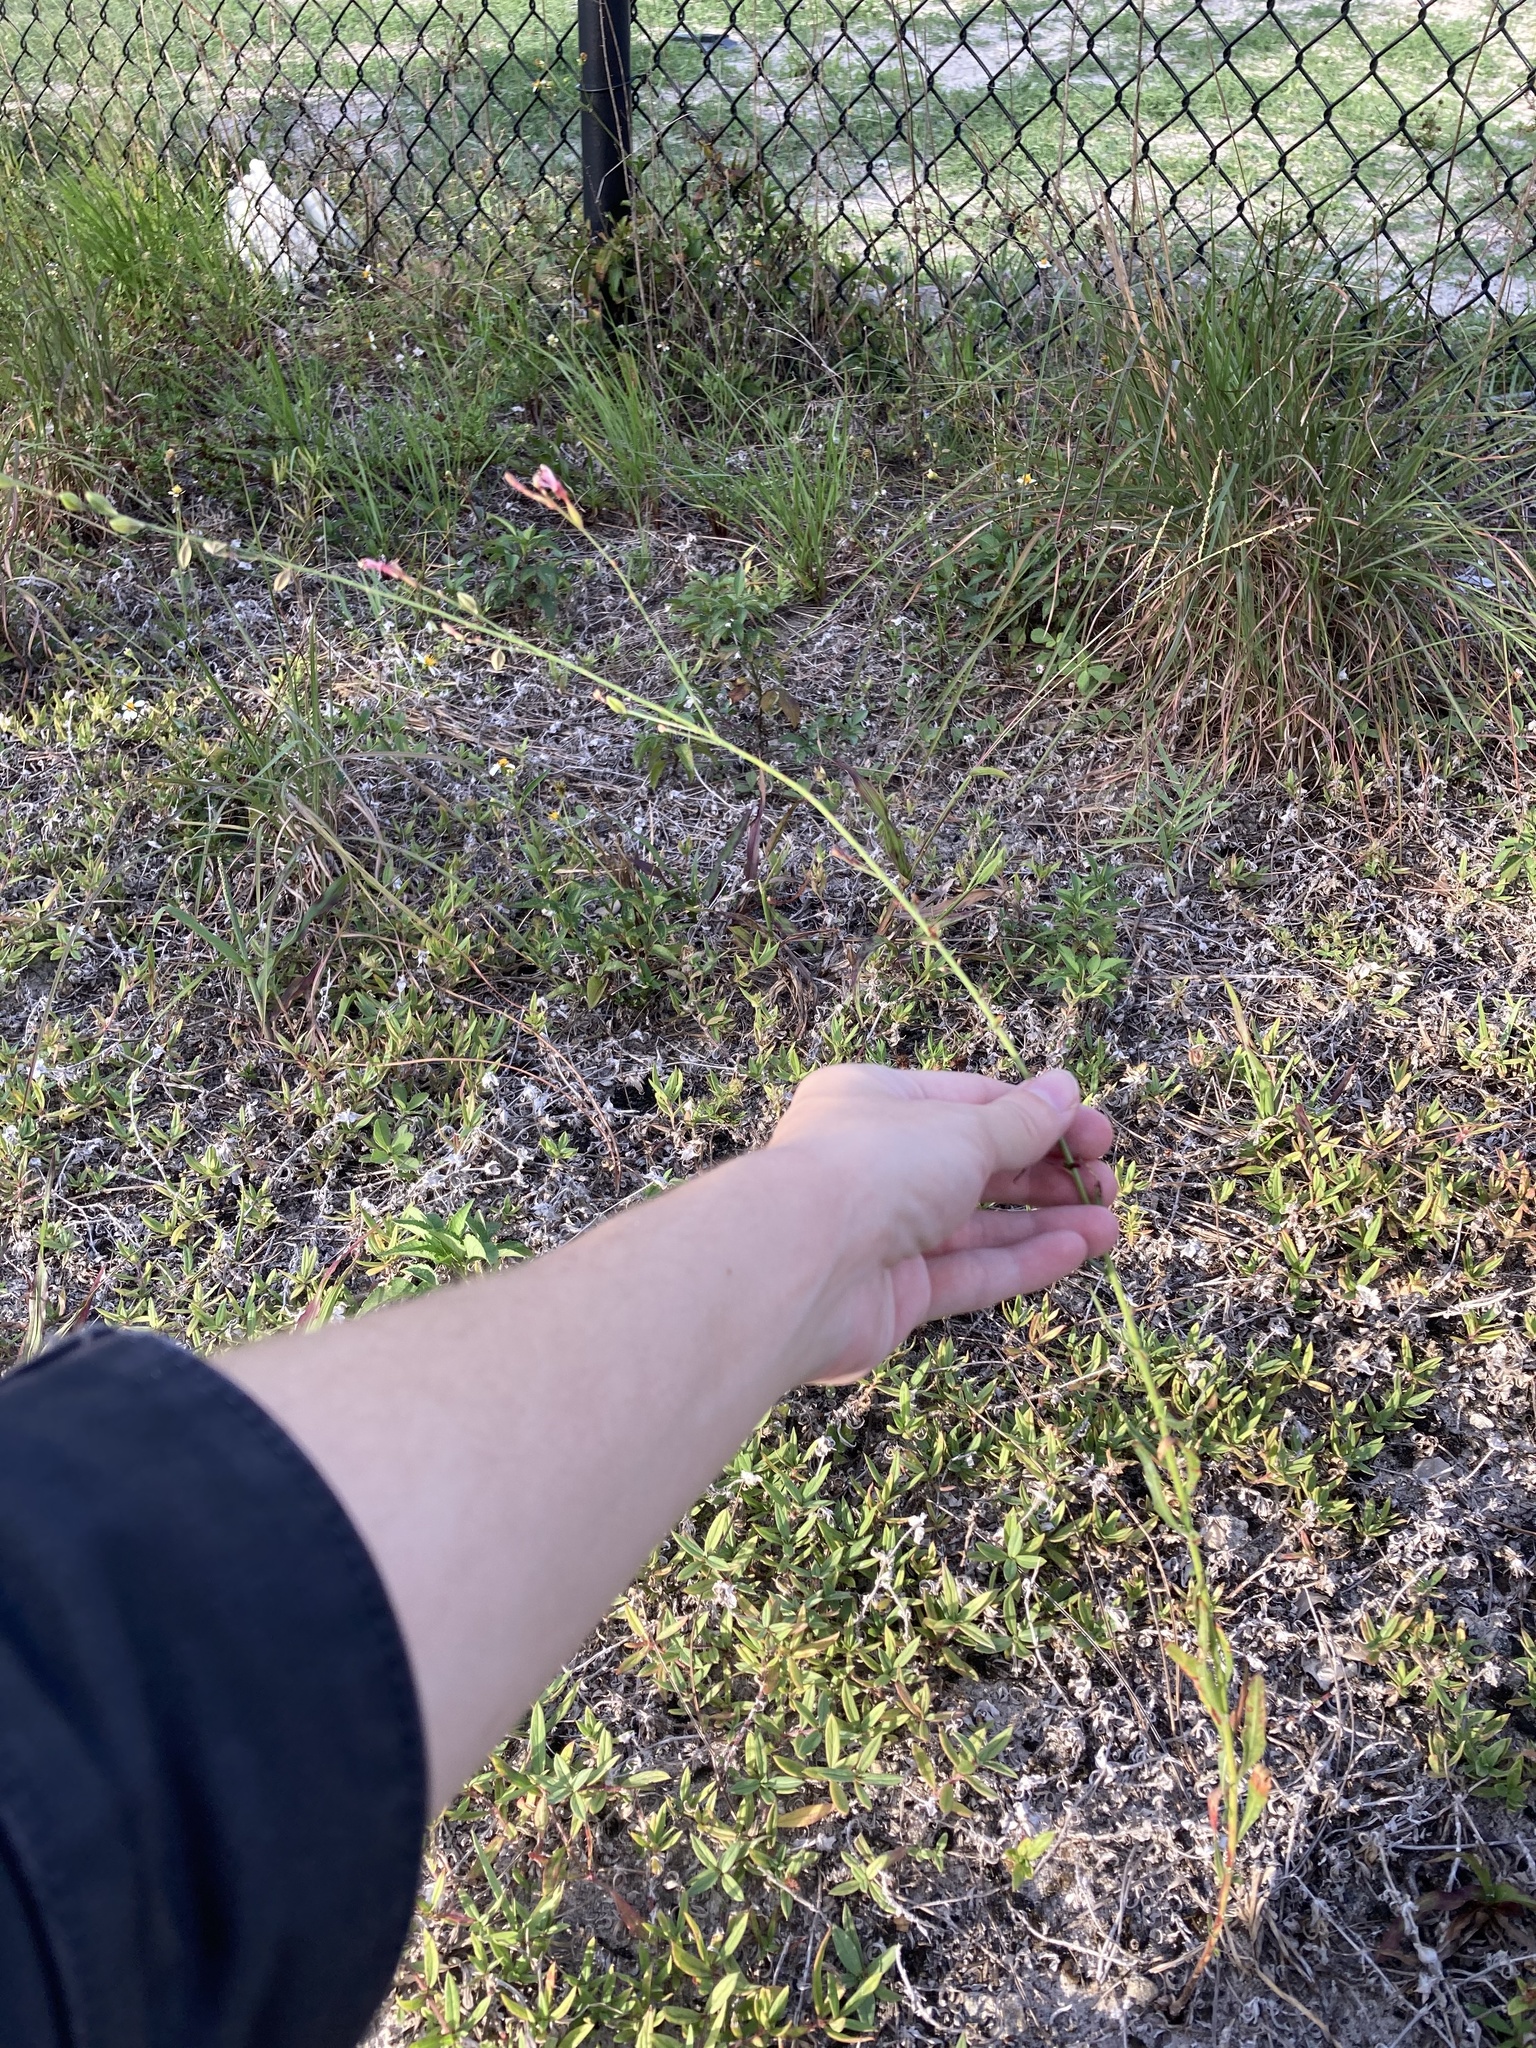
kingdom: Plantae
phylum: Tracheophyta
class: Magnoliopsida
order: Myrtales
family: Onagraceae
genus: Oenothera
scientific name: Oenothera simulans
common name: Southern beeblossom
